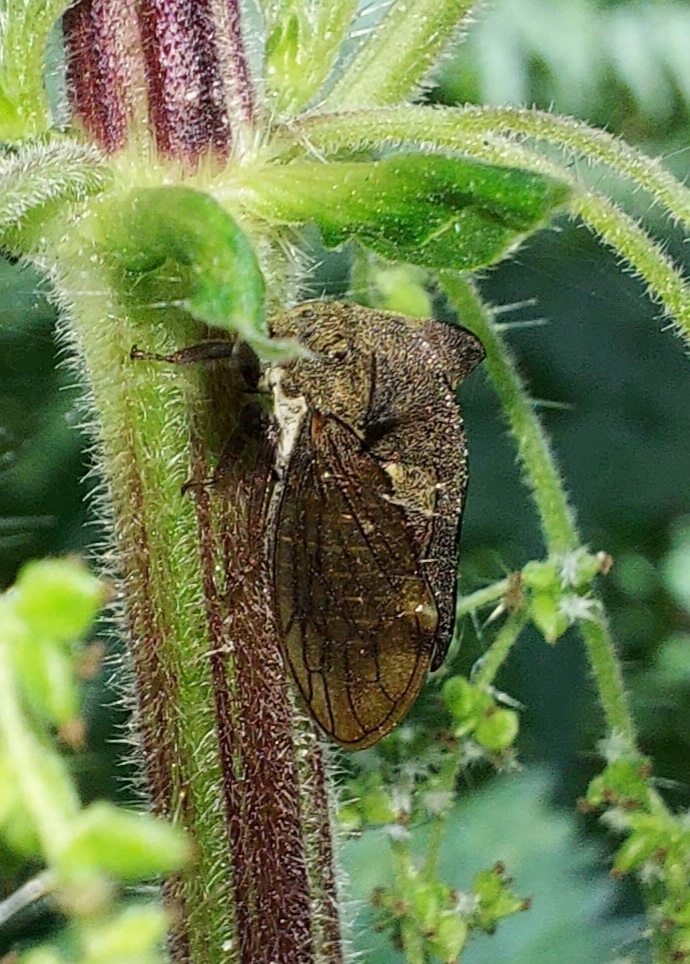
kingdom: Animalia
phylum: Arthropoda
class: Insecta
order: Hemiptera
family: Membracidae
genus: Centrotus
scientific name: Centrotus cornuta
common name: Treehopper
